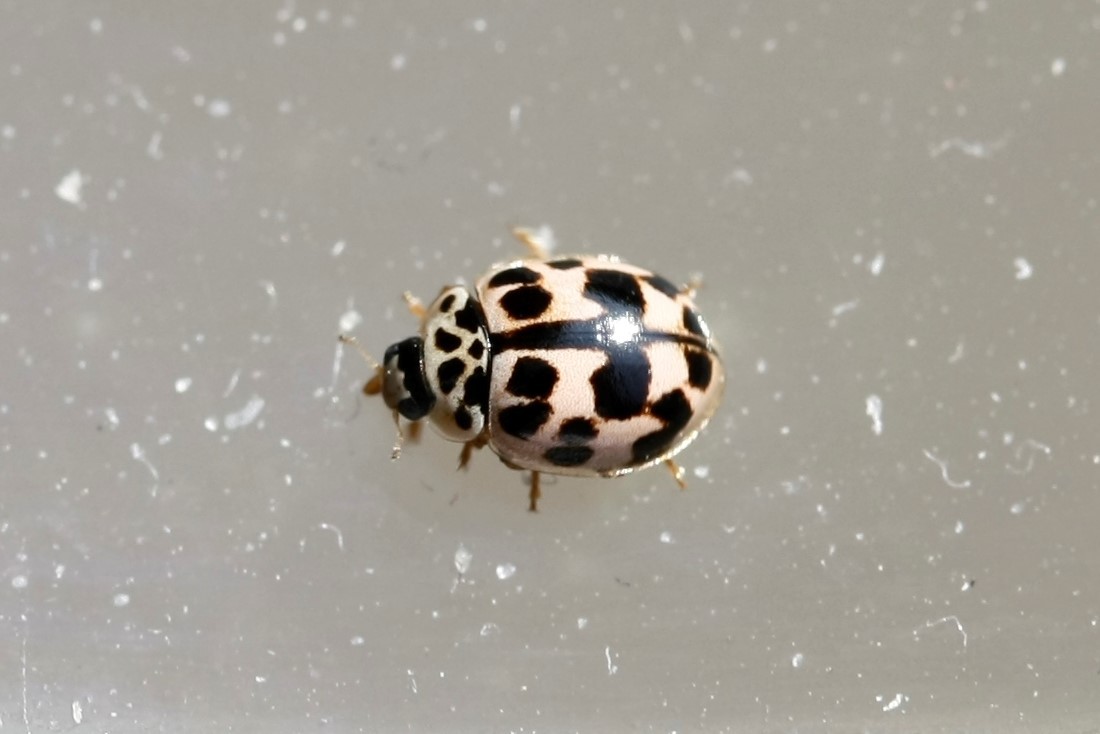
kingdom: Animalia
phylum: Arthropoda
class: Insecta
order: Coleoptera
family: Coccinellidae
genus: Oenopia
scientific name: Oenopia conglobata
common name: Ladybird beetle
